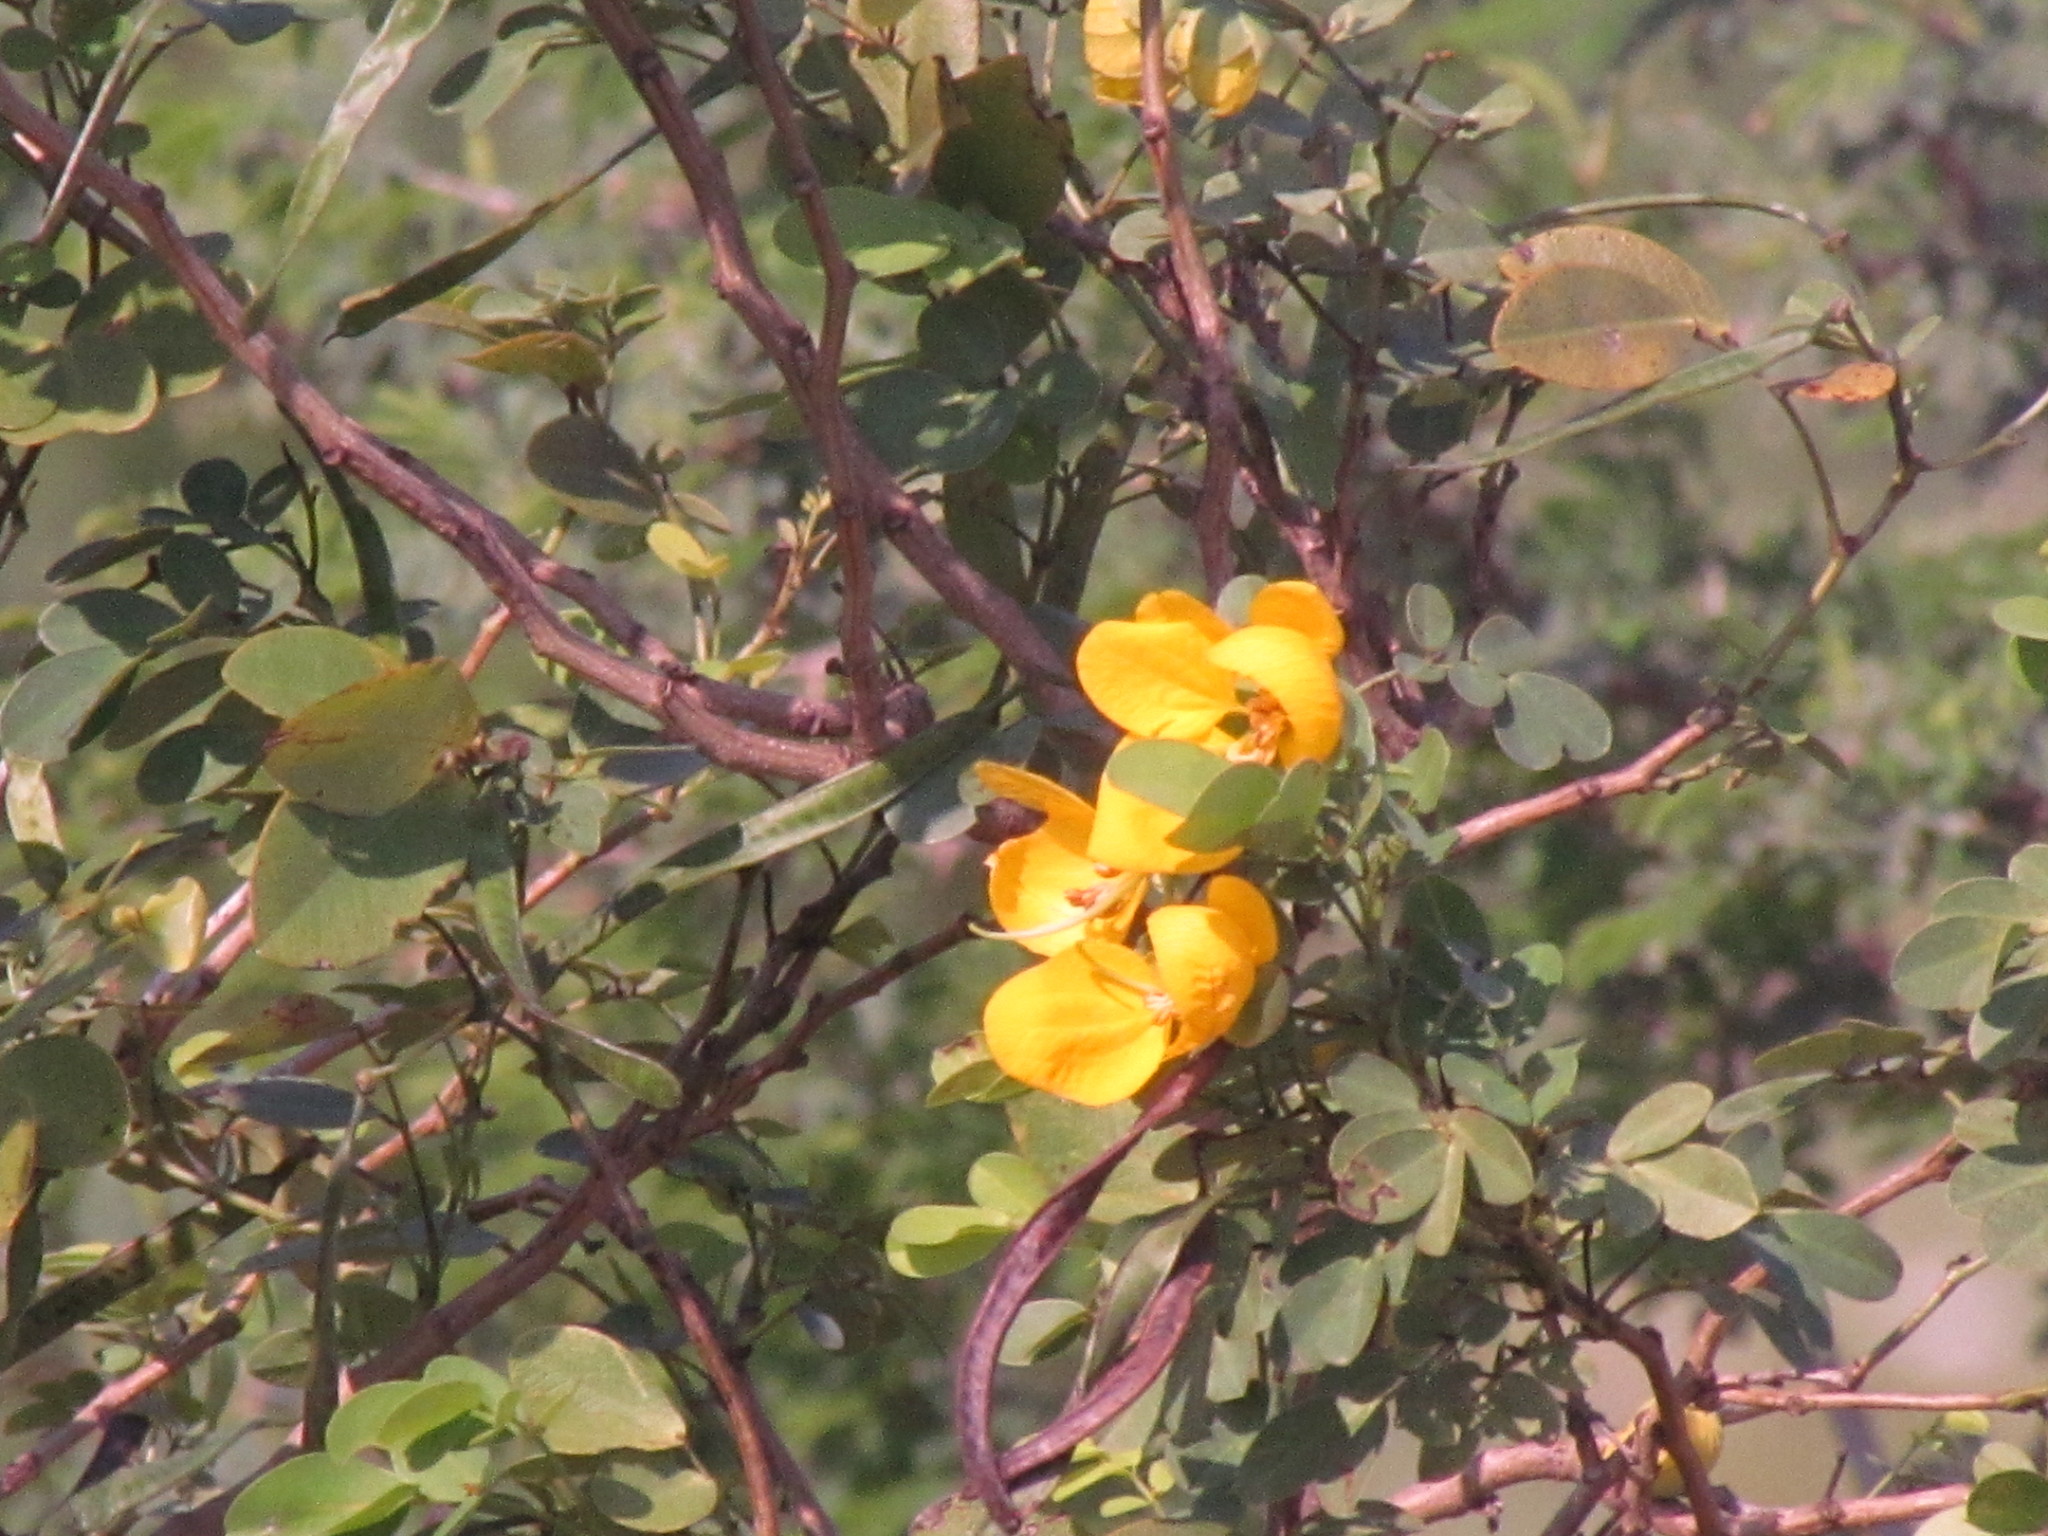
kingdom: Plantae
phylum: Tracheophyta
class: Magnoliopsida
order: Fabales
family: Fabaceae
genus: Senna
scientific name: Senna pallida
